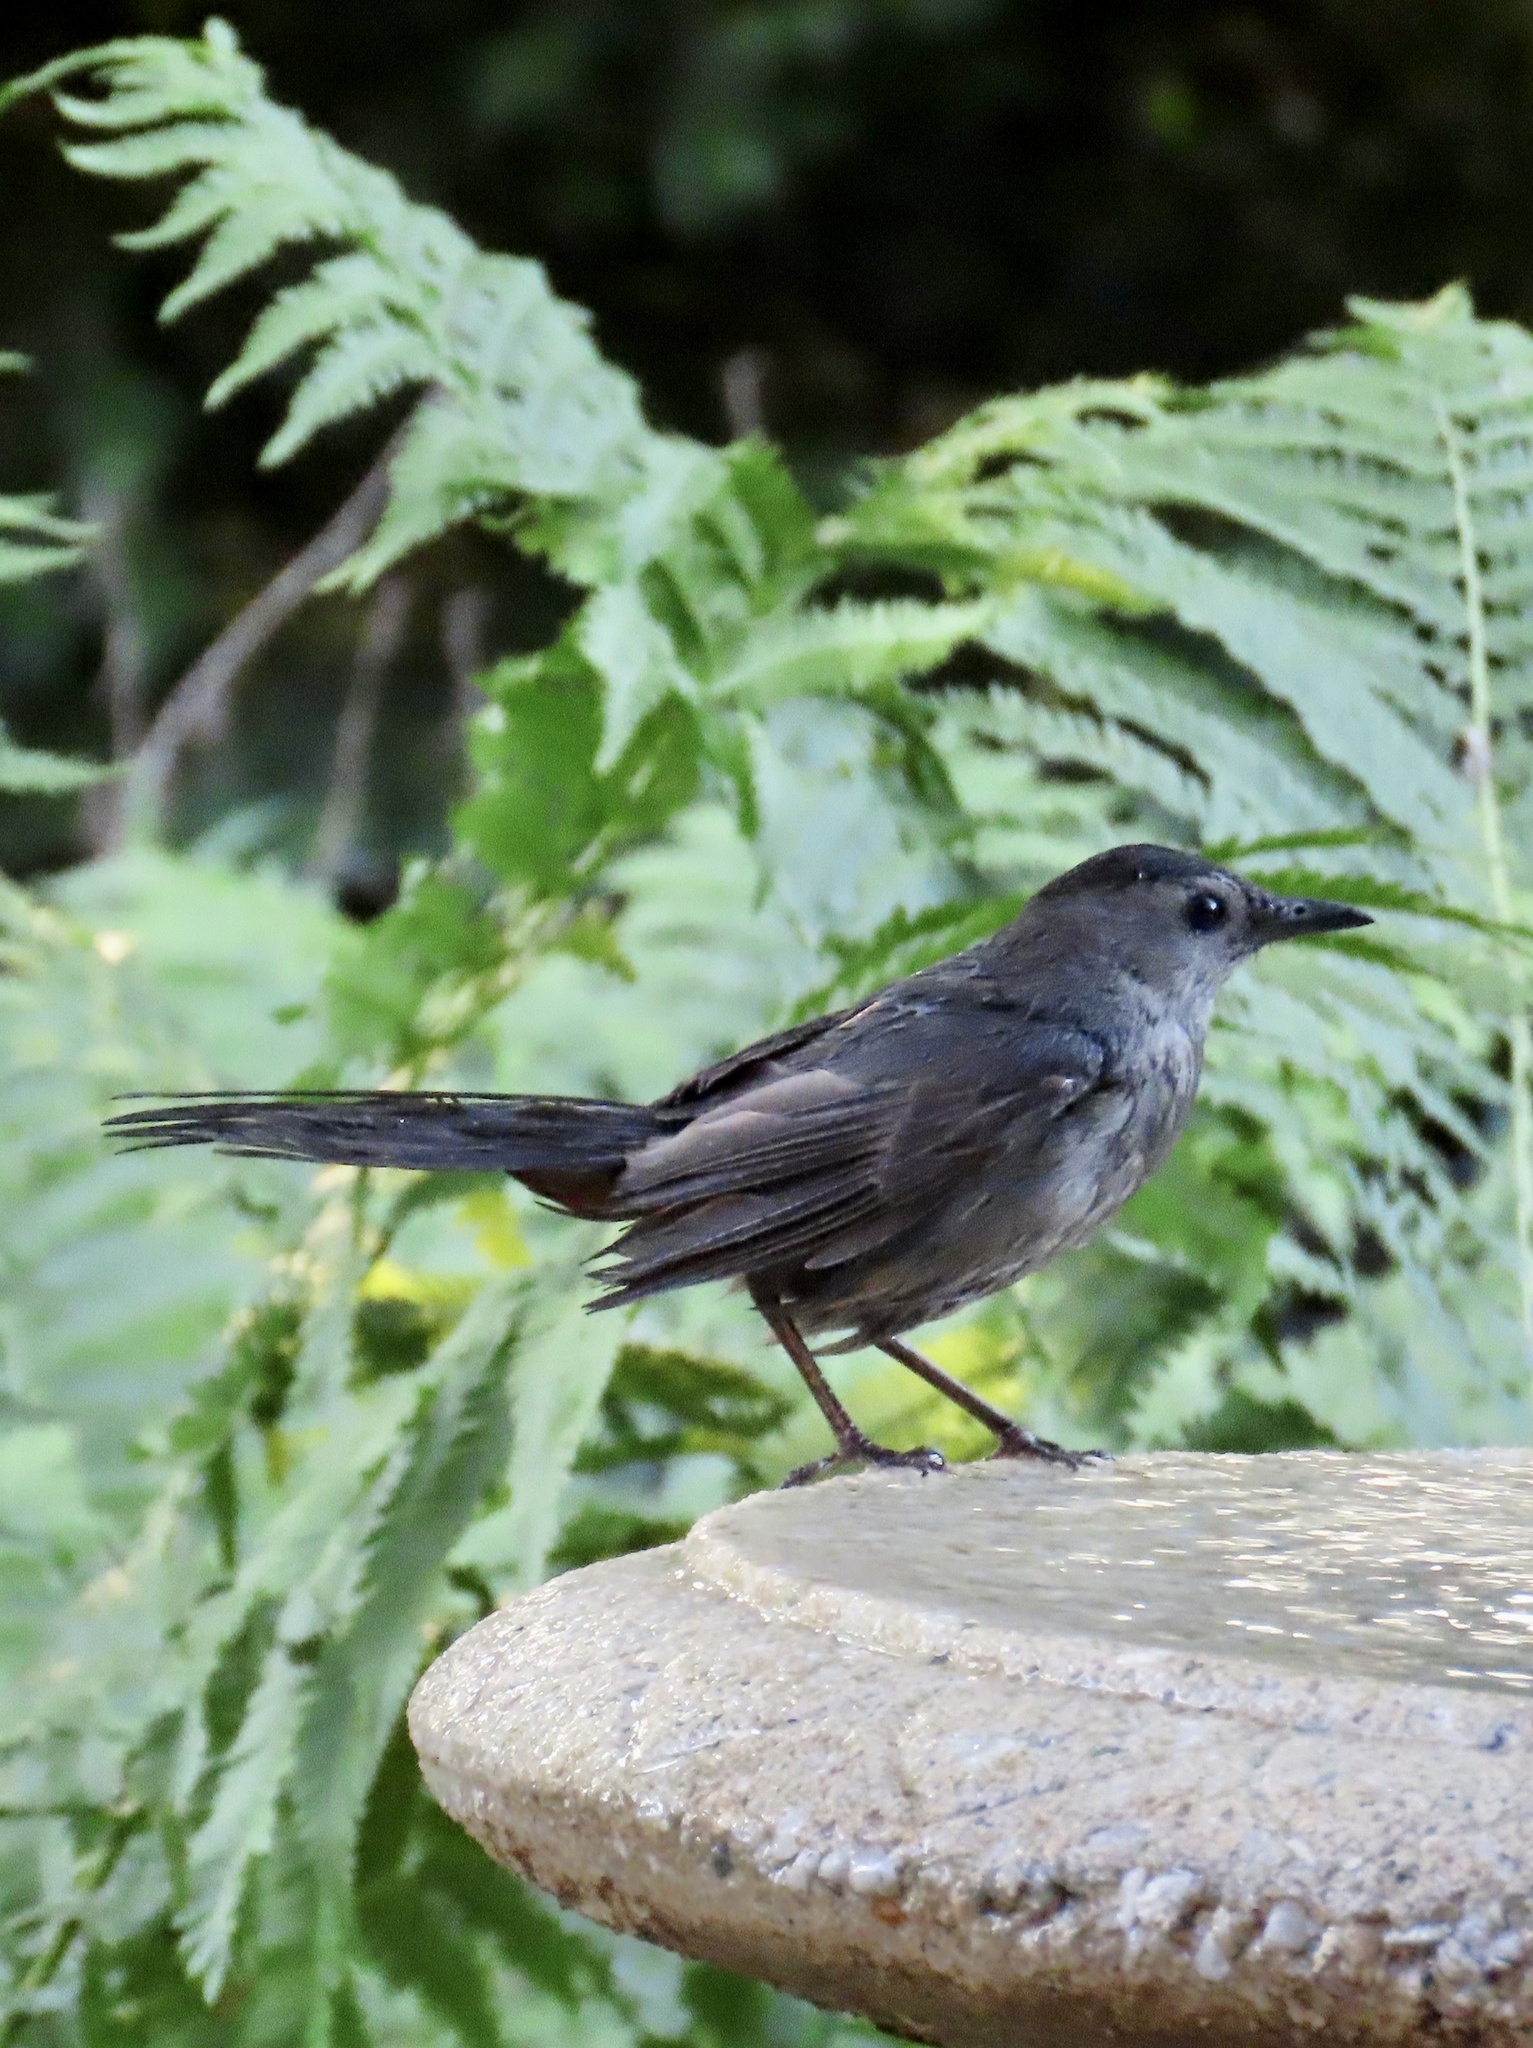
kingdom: Animalia
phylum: Chordata
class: Aves
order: Passeriformes
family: Mimidae
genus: Dumetella
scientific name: Dumetella carolinensis
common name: Gray catbird
